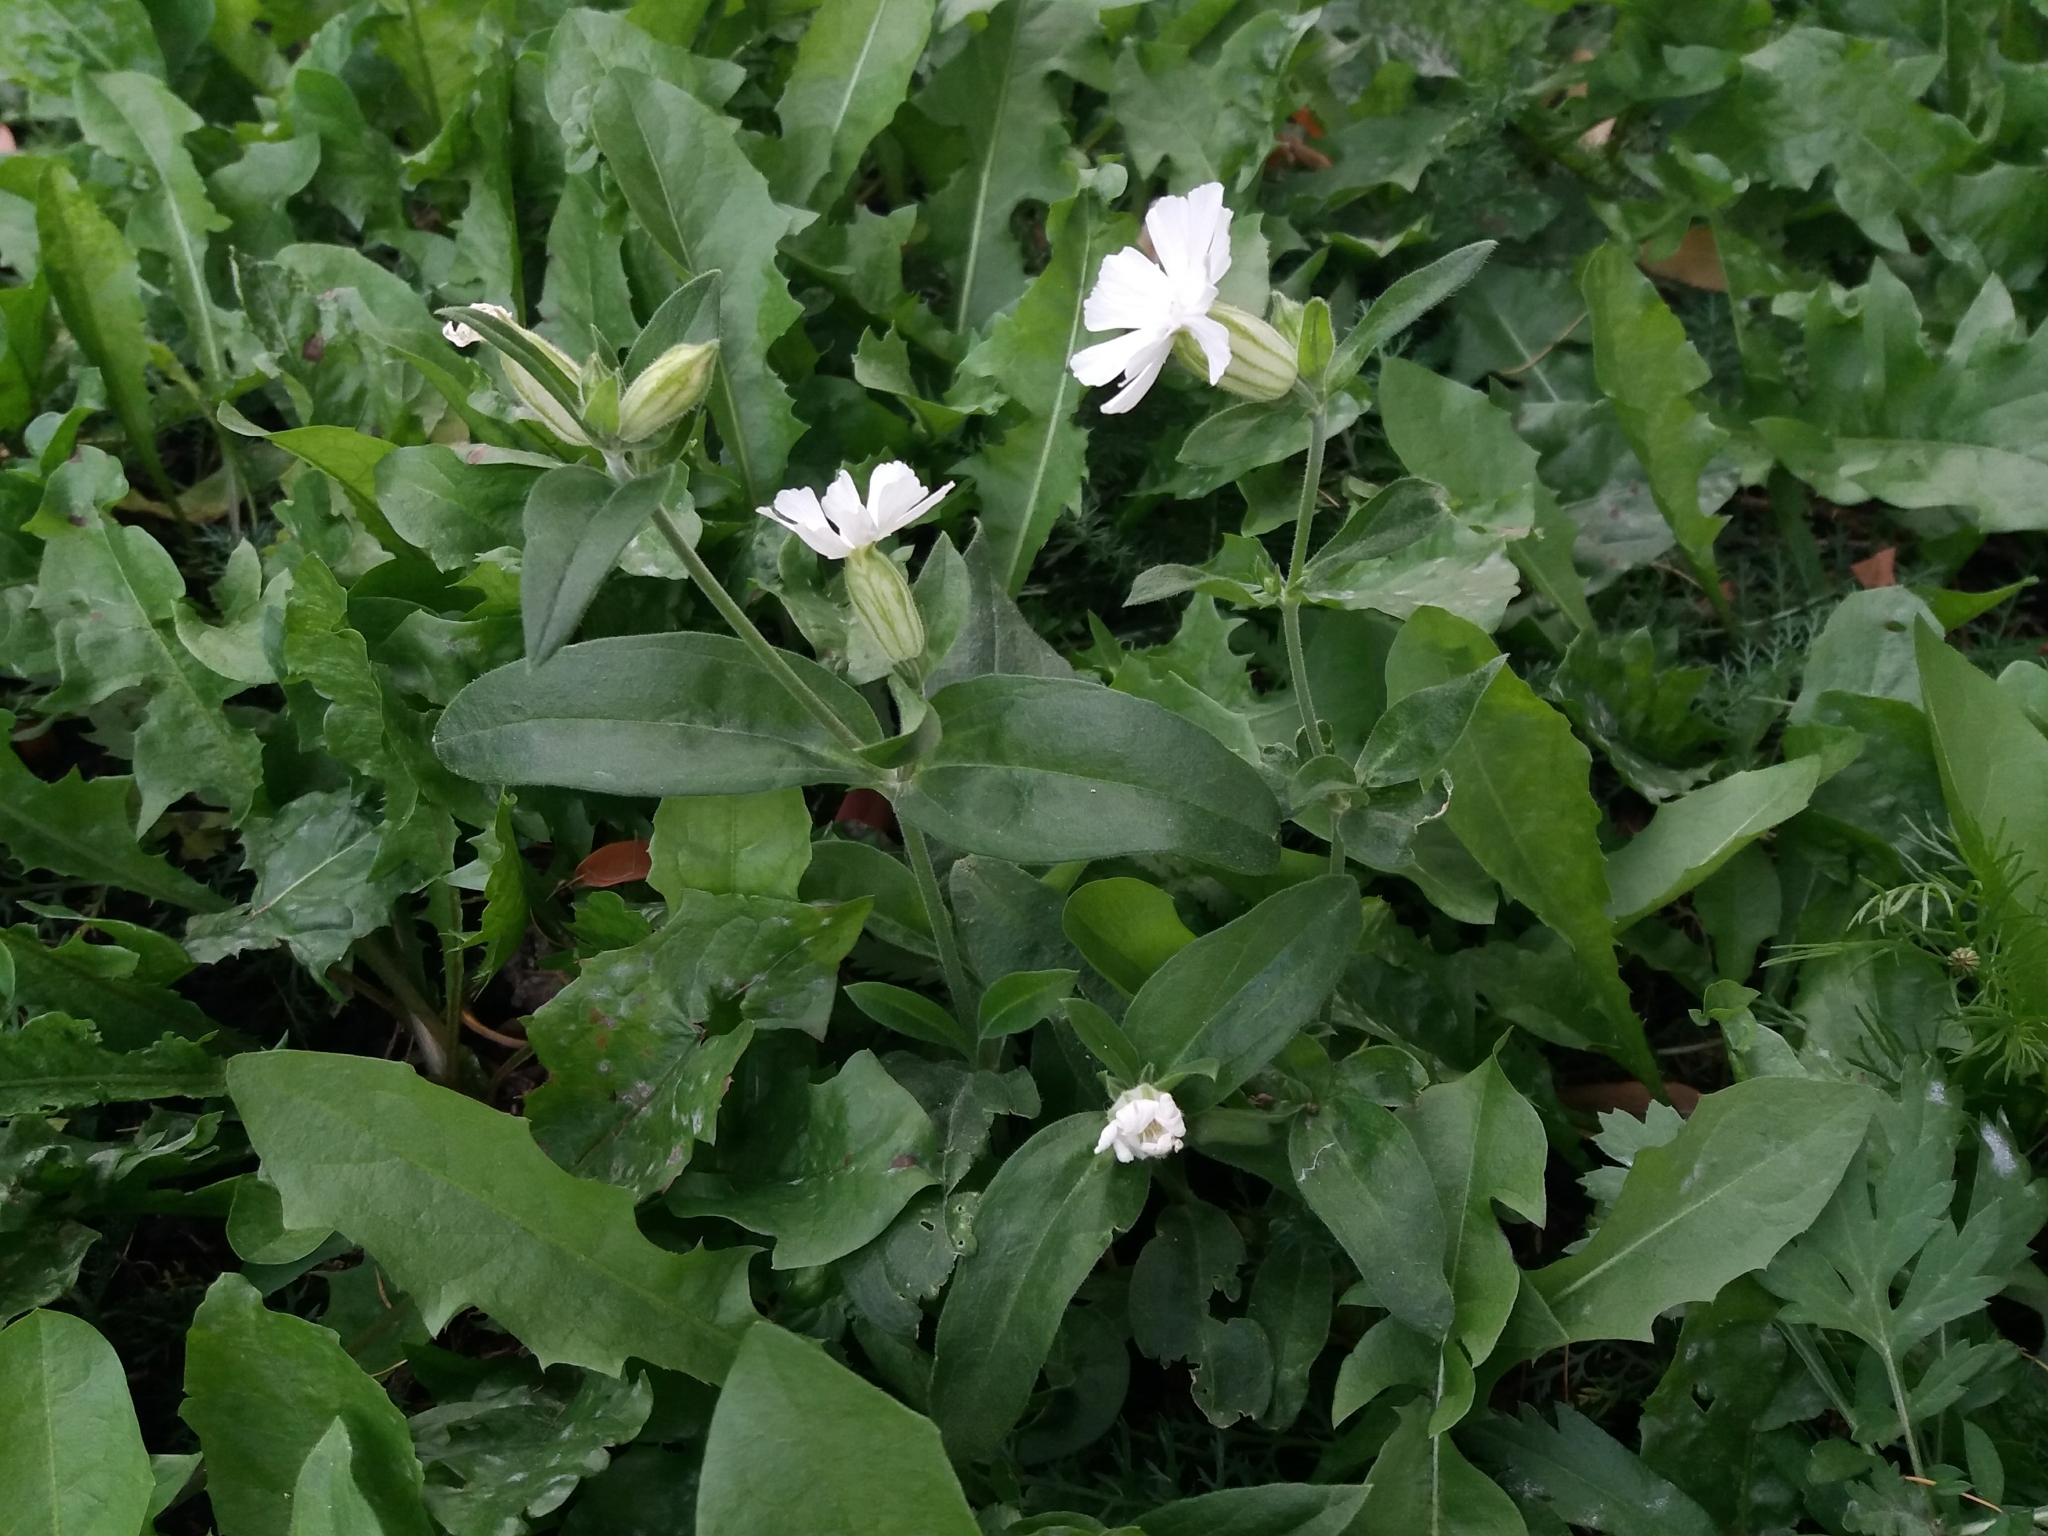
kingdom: Plantae
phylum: Tracheophyta
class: Magnoliopsida
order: Caryophyllales
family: Caryophyllaceae
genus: Silene
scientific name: Silene latifolia
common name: White campion
